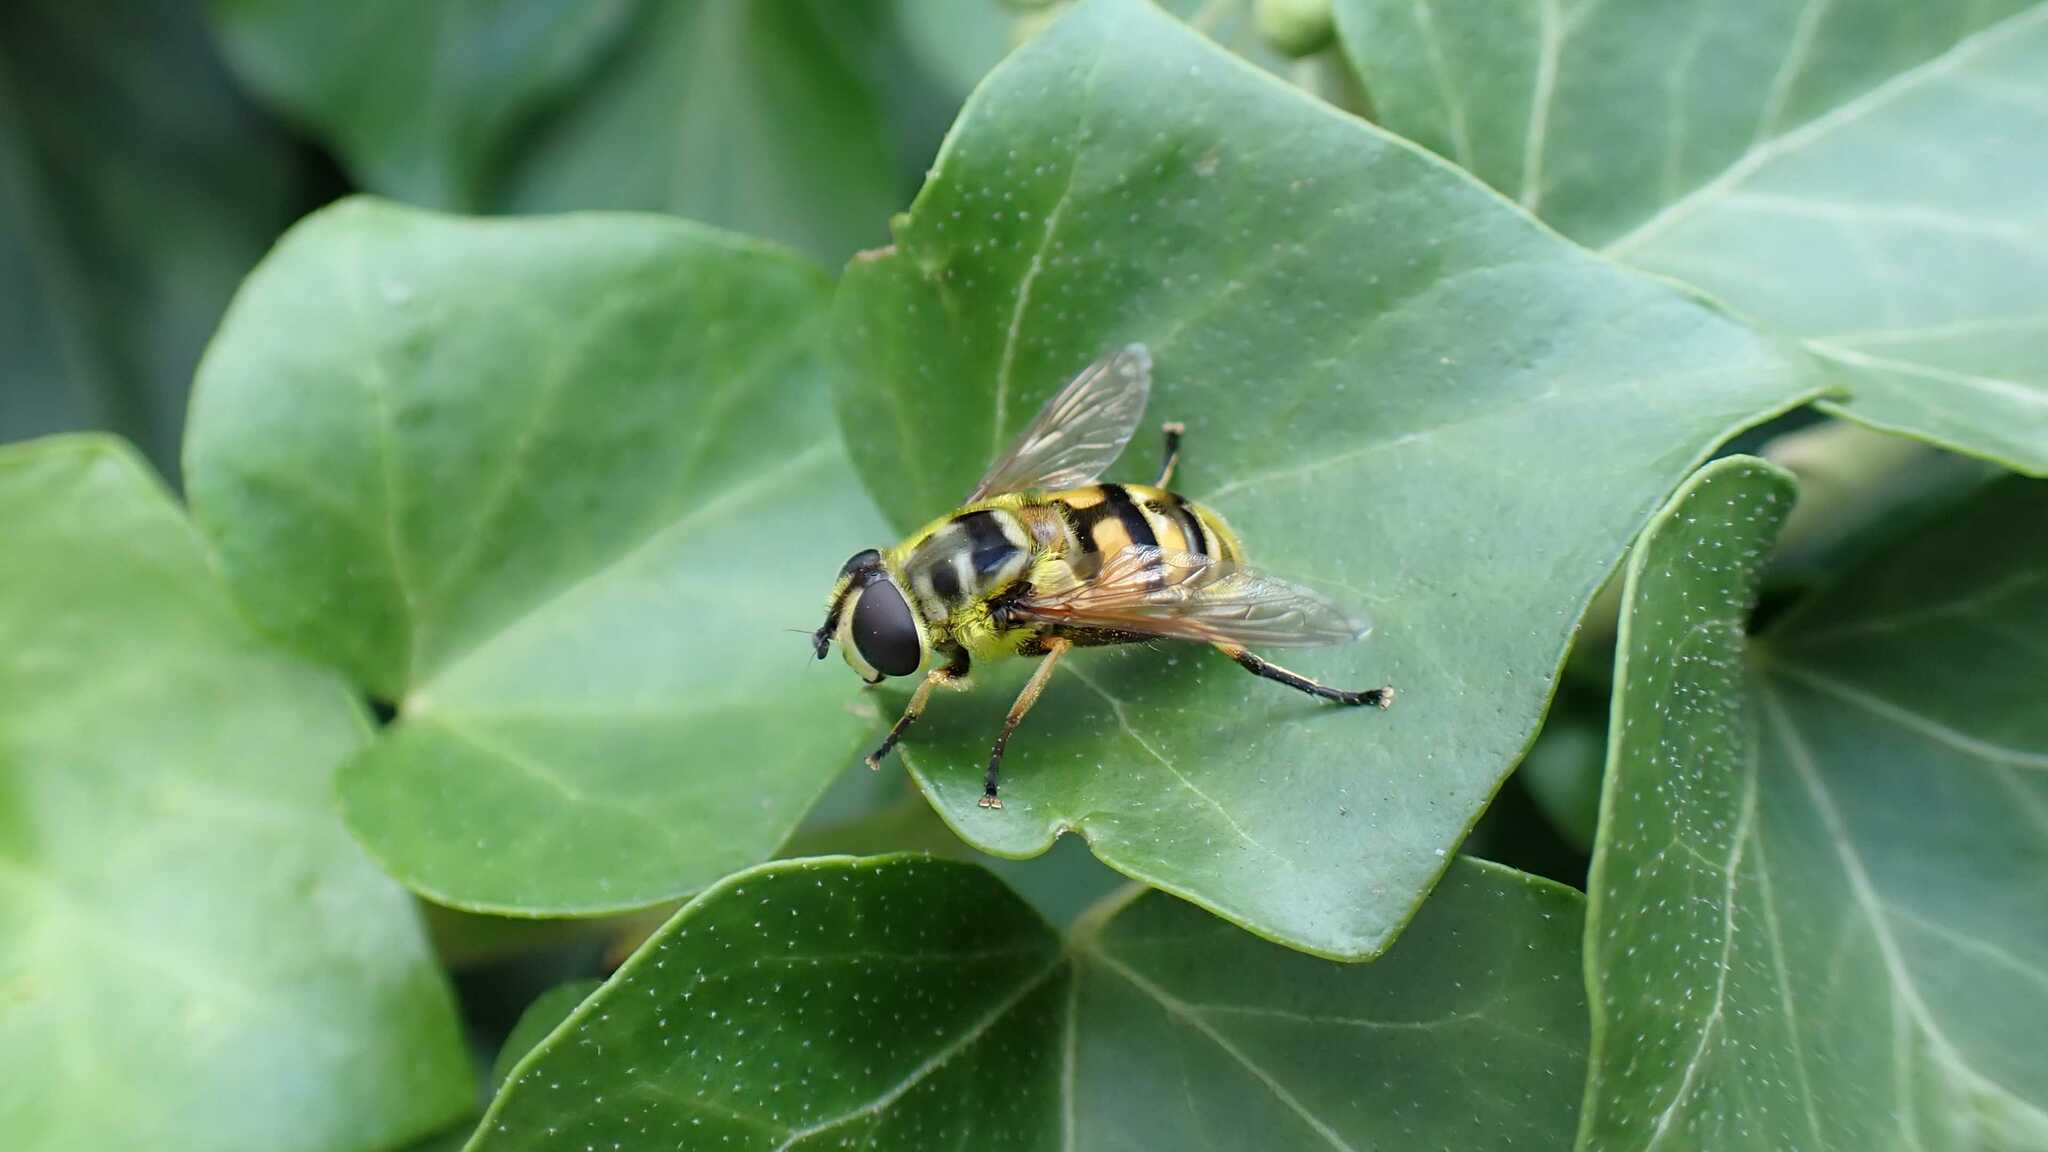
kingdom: Animalia
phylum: Arthropoda
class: Insecta
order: Diptera
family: Syrphidae
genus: Myathropa
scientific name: Myathropa florea
